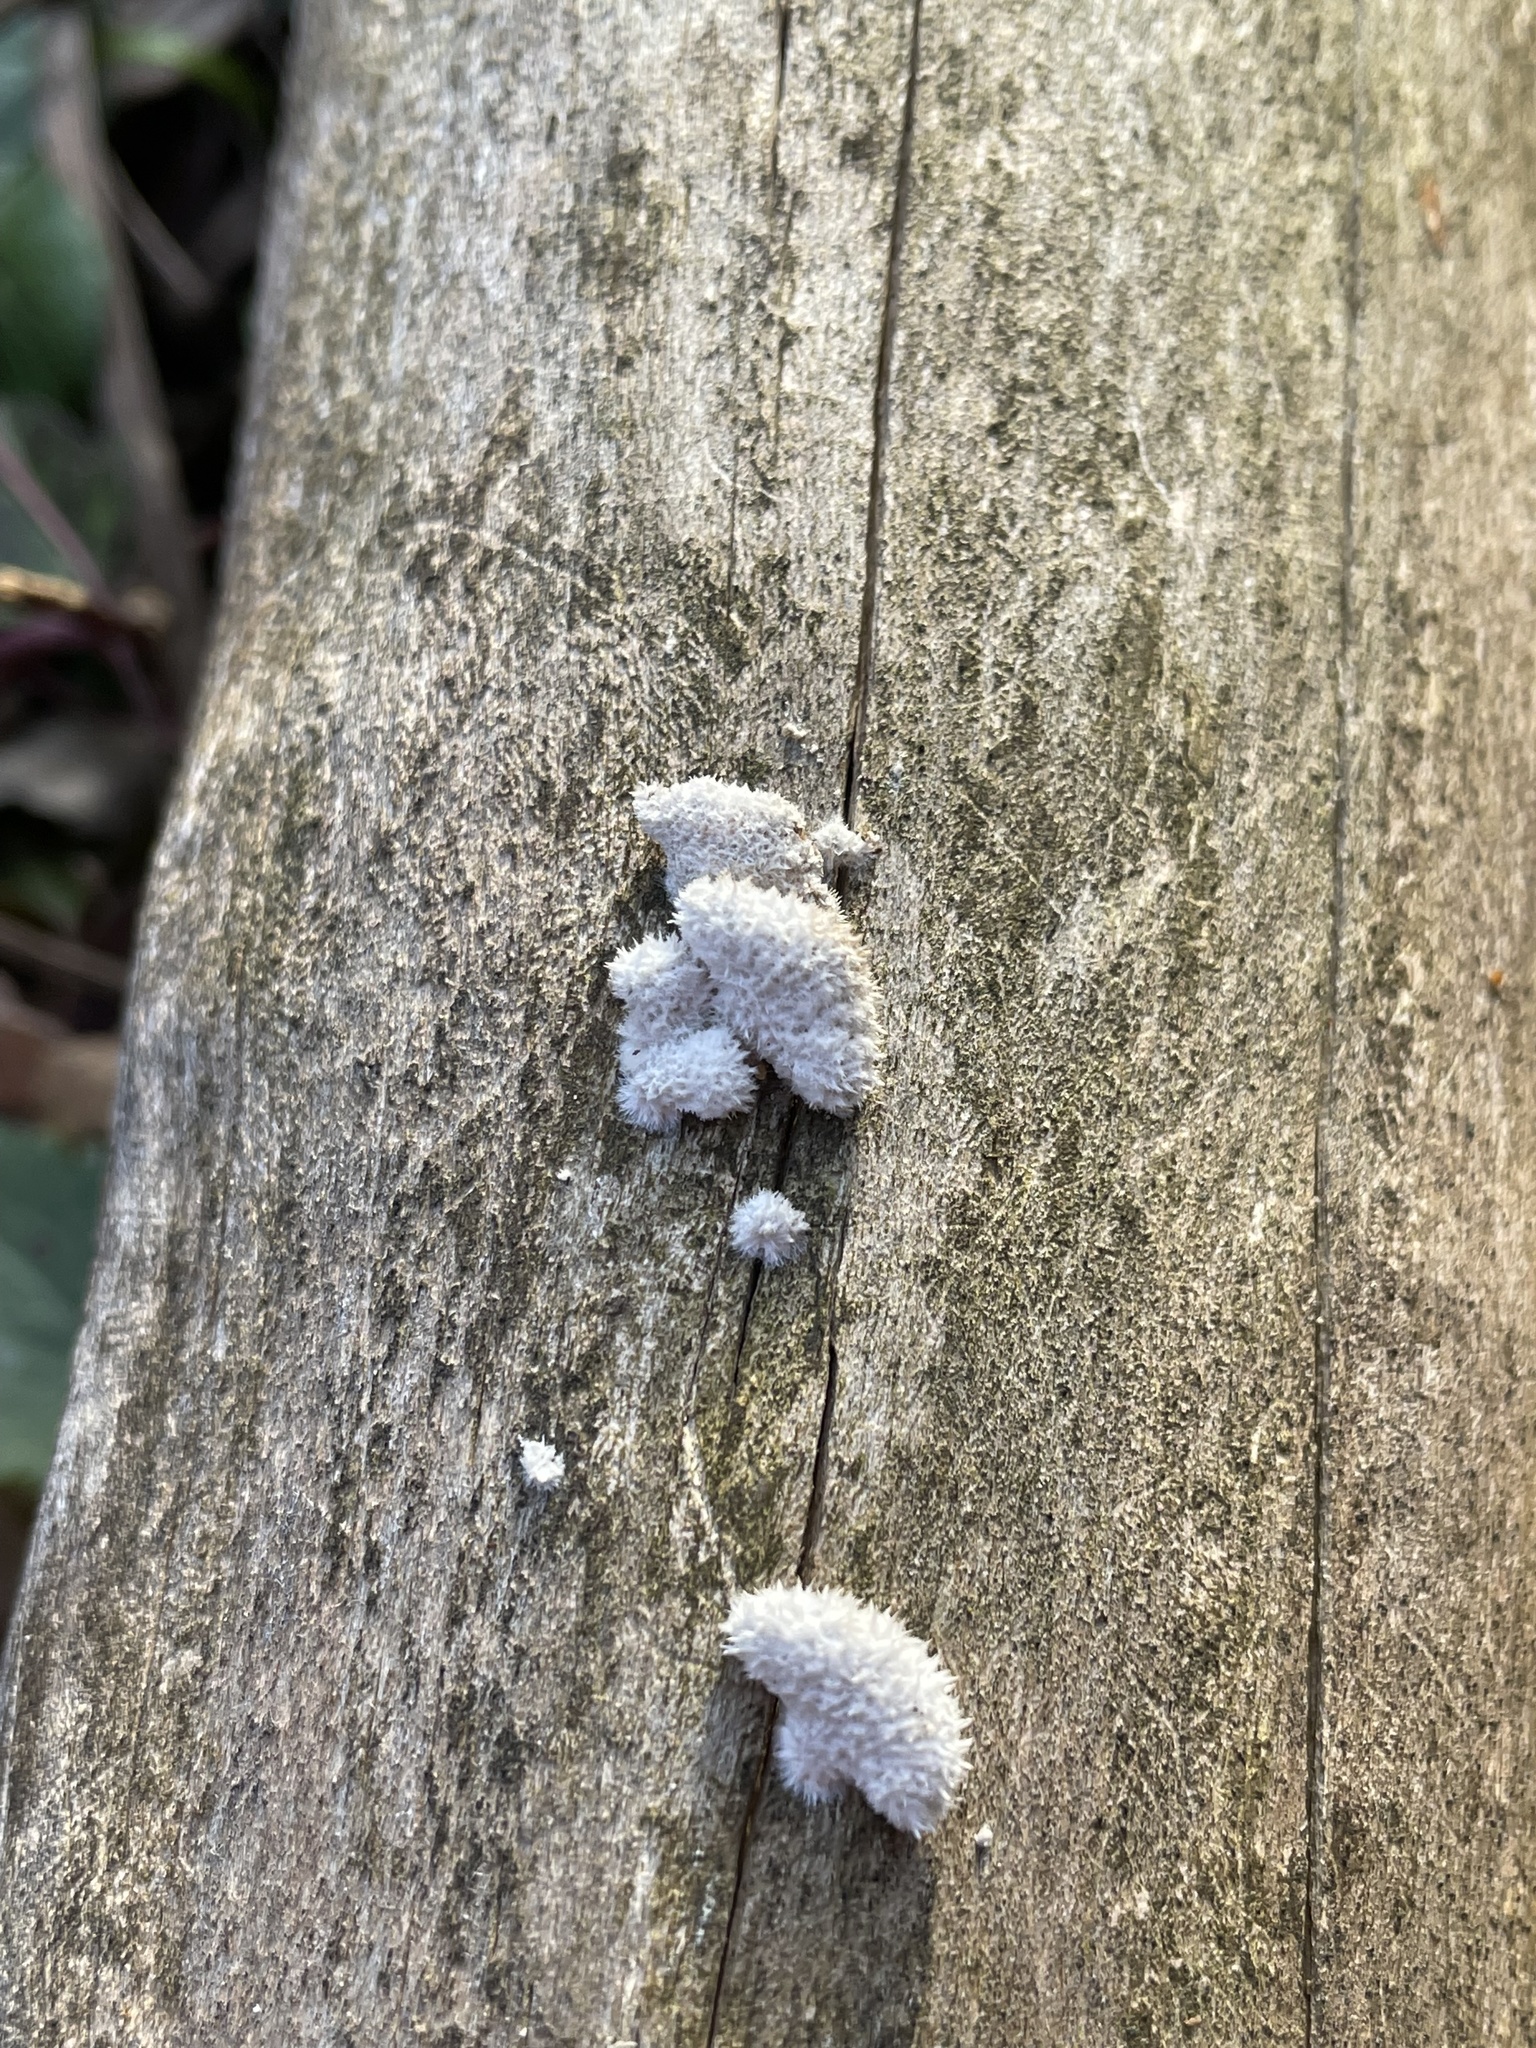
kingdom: Fungi
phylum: Basidiomycota
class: Agaricomycetes
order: Agaricales
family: Schizophyllaceae
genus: Schizophyllum
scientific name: Schizophyllum commune
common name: Common porecrust
